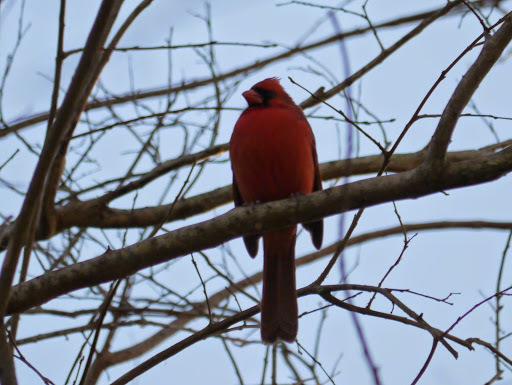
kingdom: Animalia
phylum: Chordata
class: Aves
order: Passeriformes
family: Cardinalidae
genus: Cardinalis
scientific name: Cardinalis cardinalis
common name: Northern cardinal
